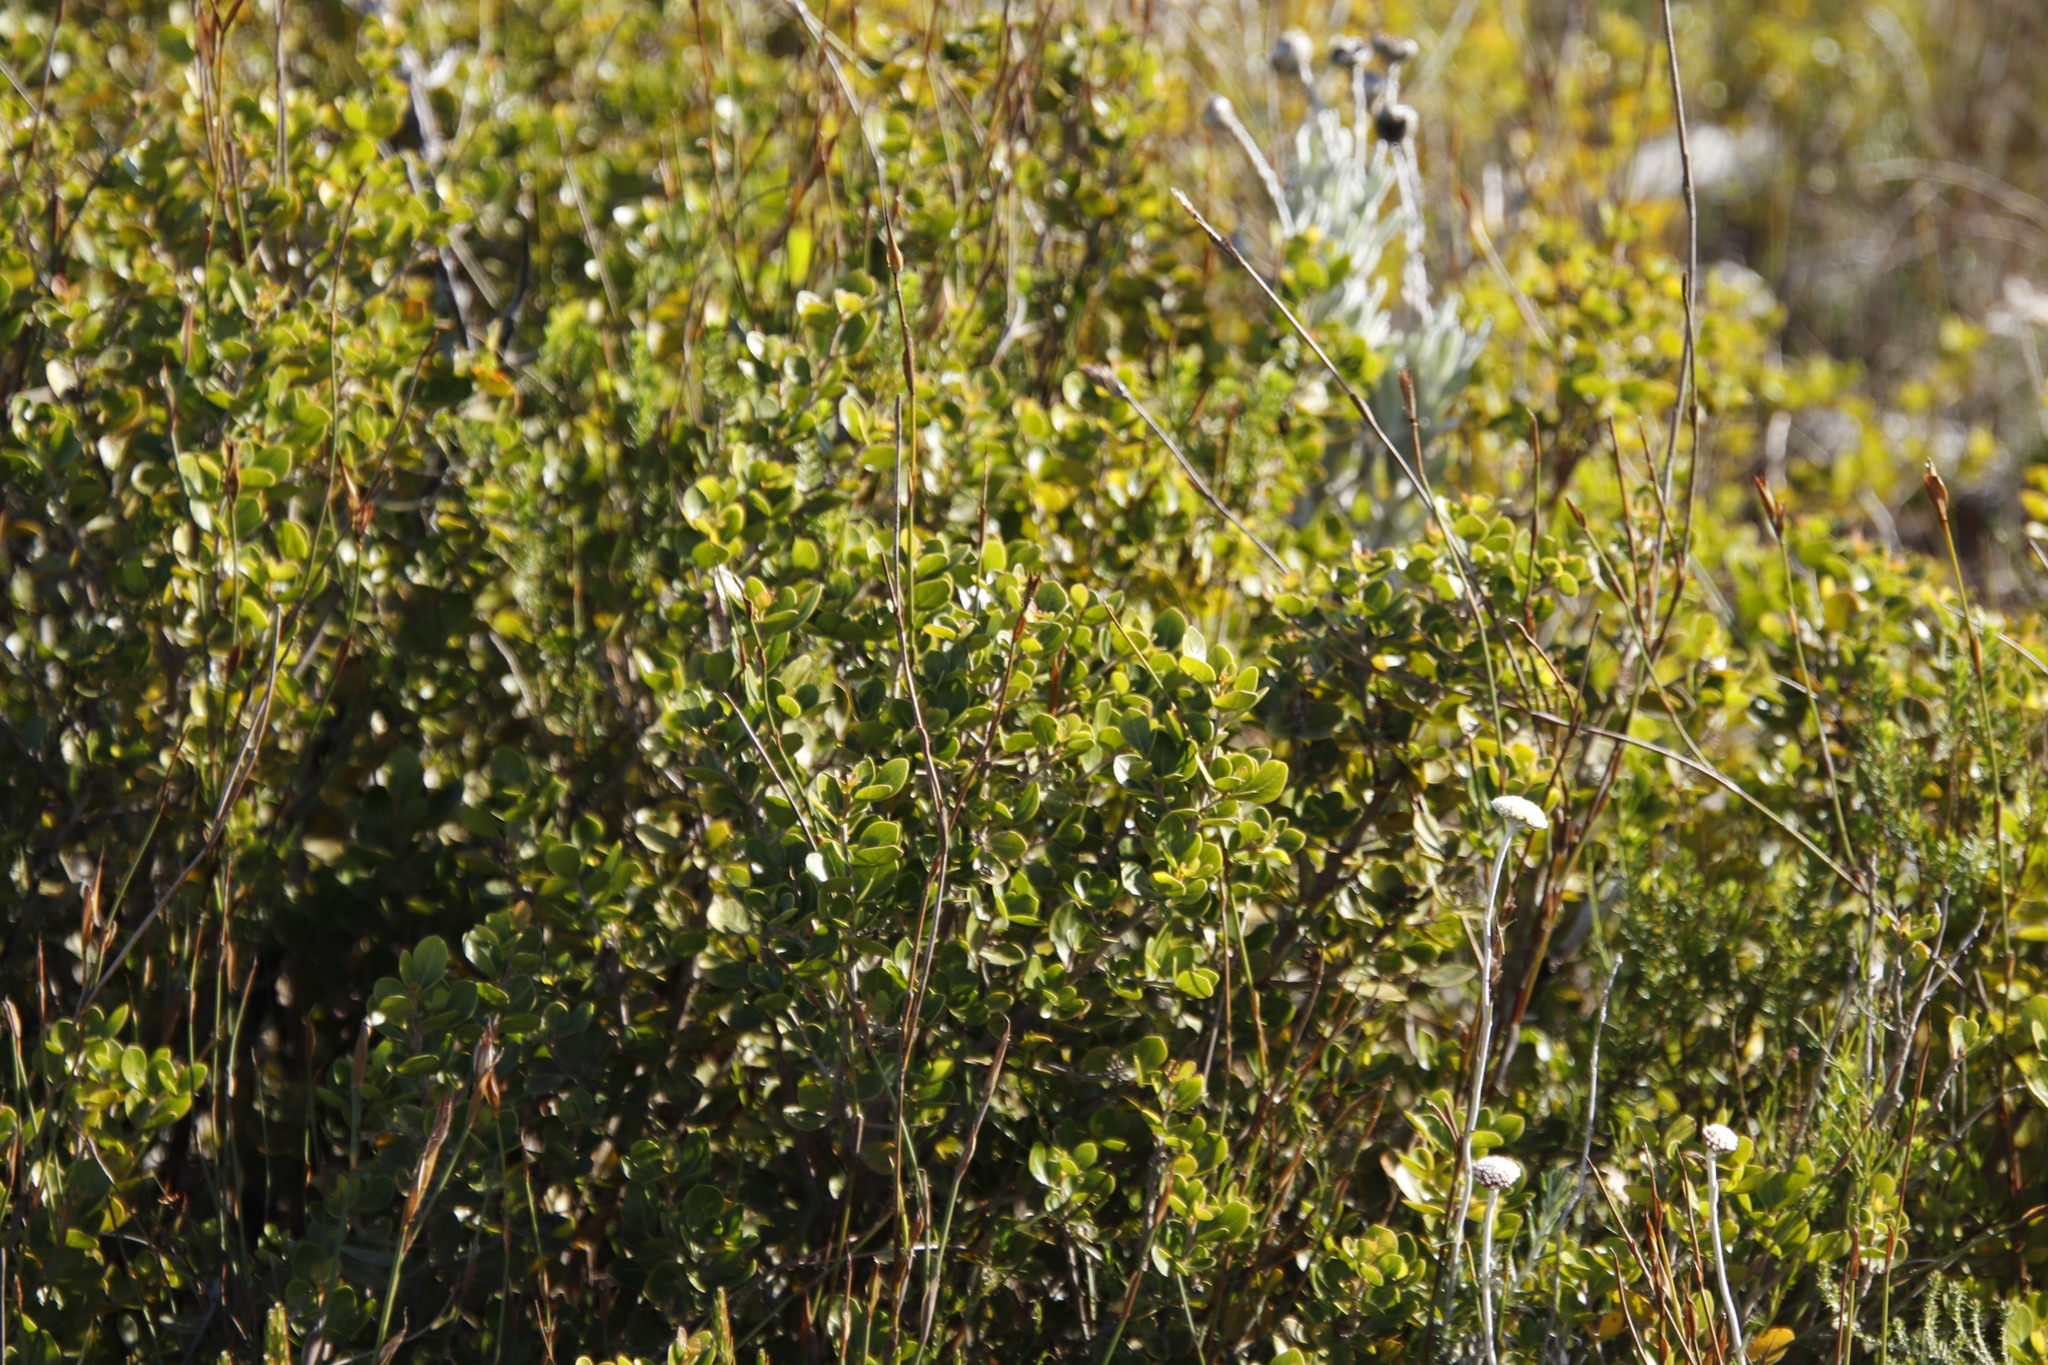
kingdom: Plantae
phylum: Tracheophyta
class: Magnoliopsida
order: Sapindales
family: Anacardiaceae
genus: Searsia
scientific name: Searsia lucida
